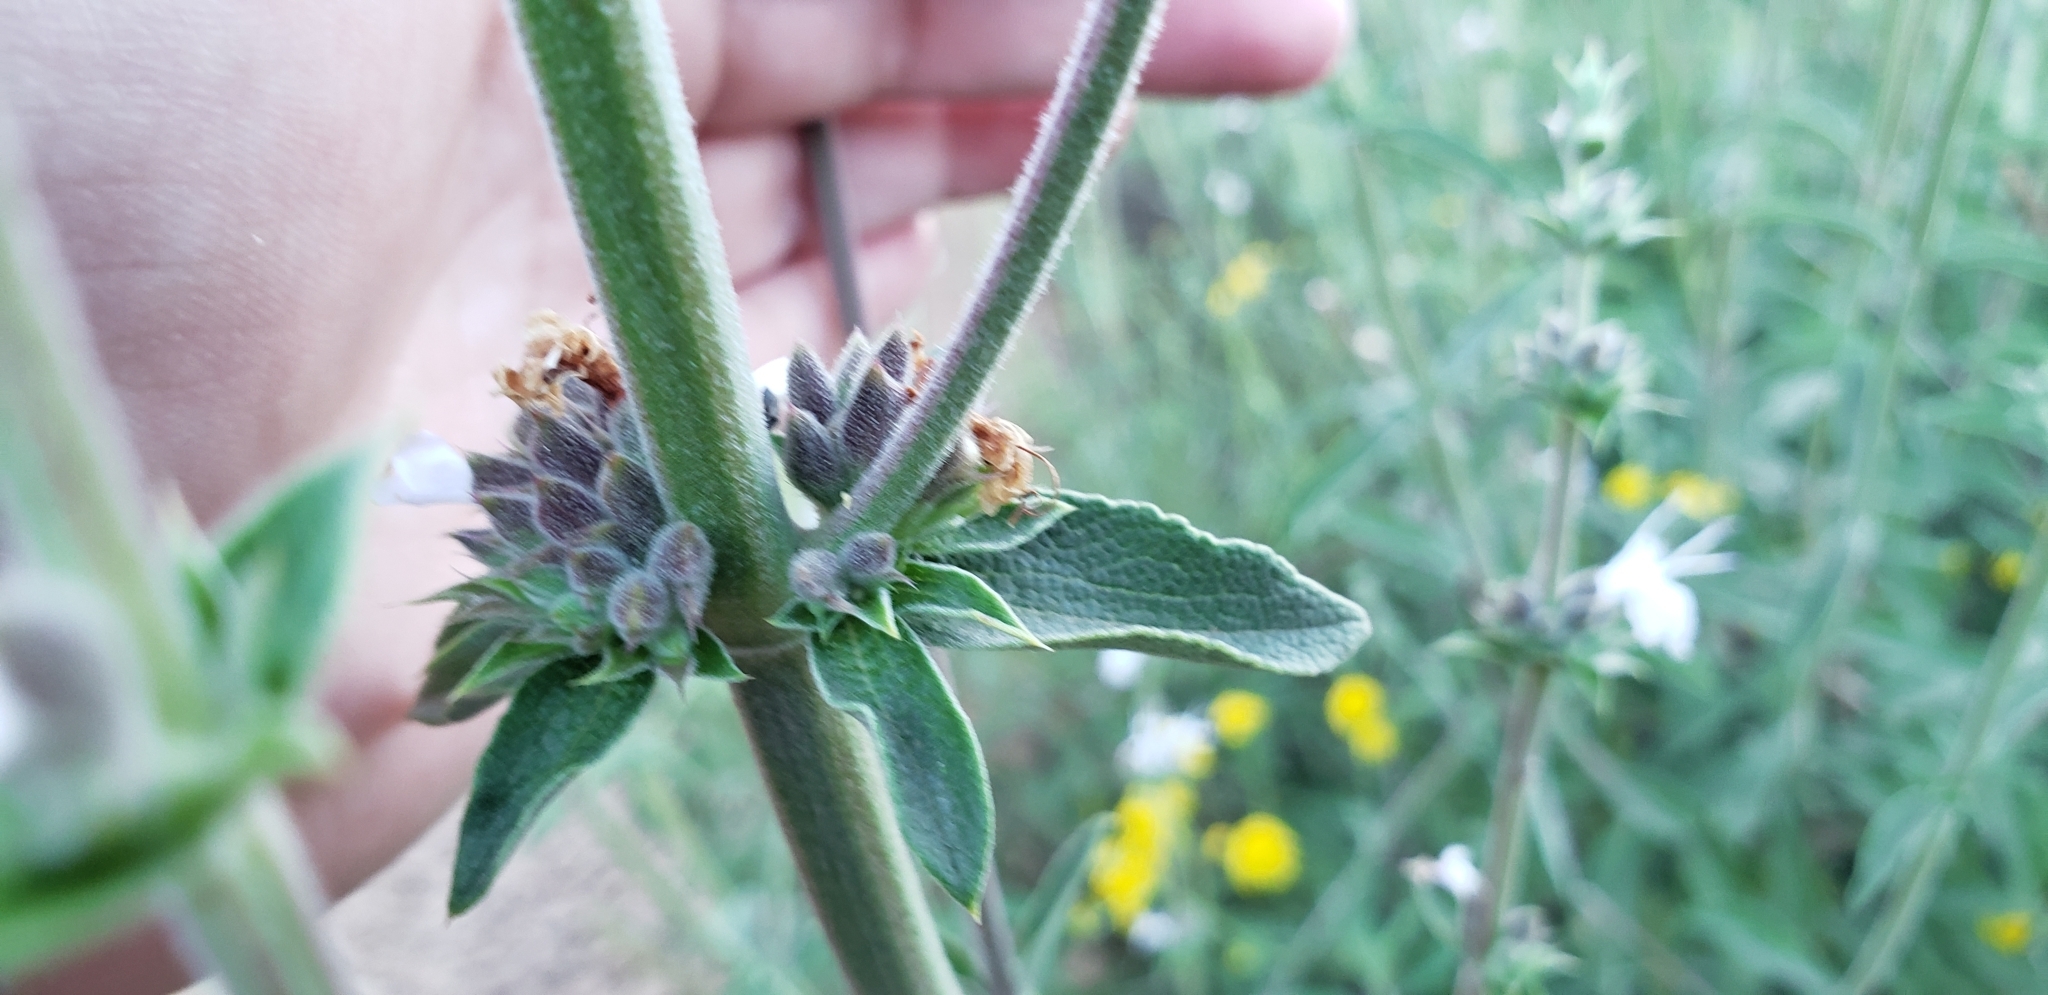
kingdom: Plantae
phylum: Tracheophyta
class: Magnoliopsida
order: Lamiales
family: Lamiaceae
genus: Salvia
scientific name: Salvia mellifera
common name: Black sage
